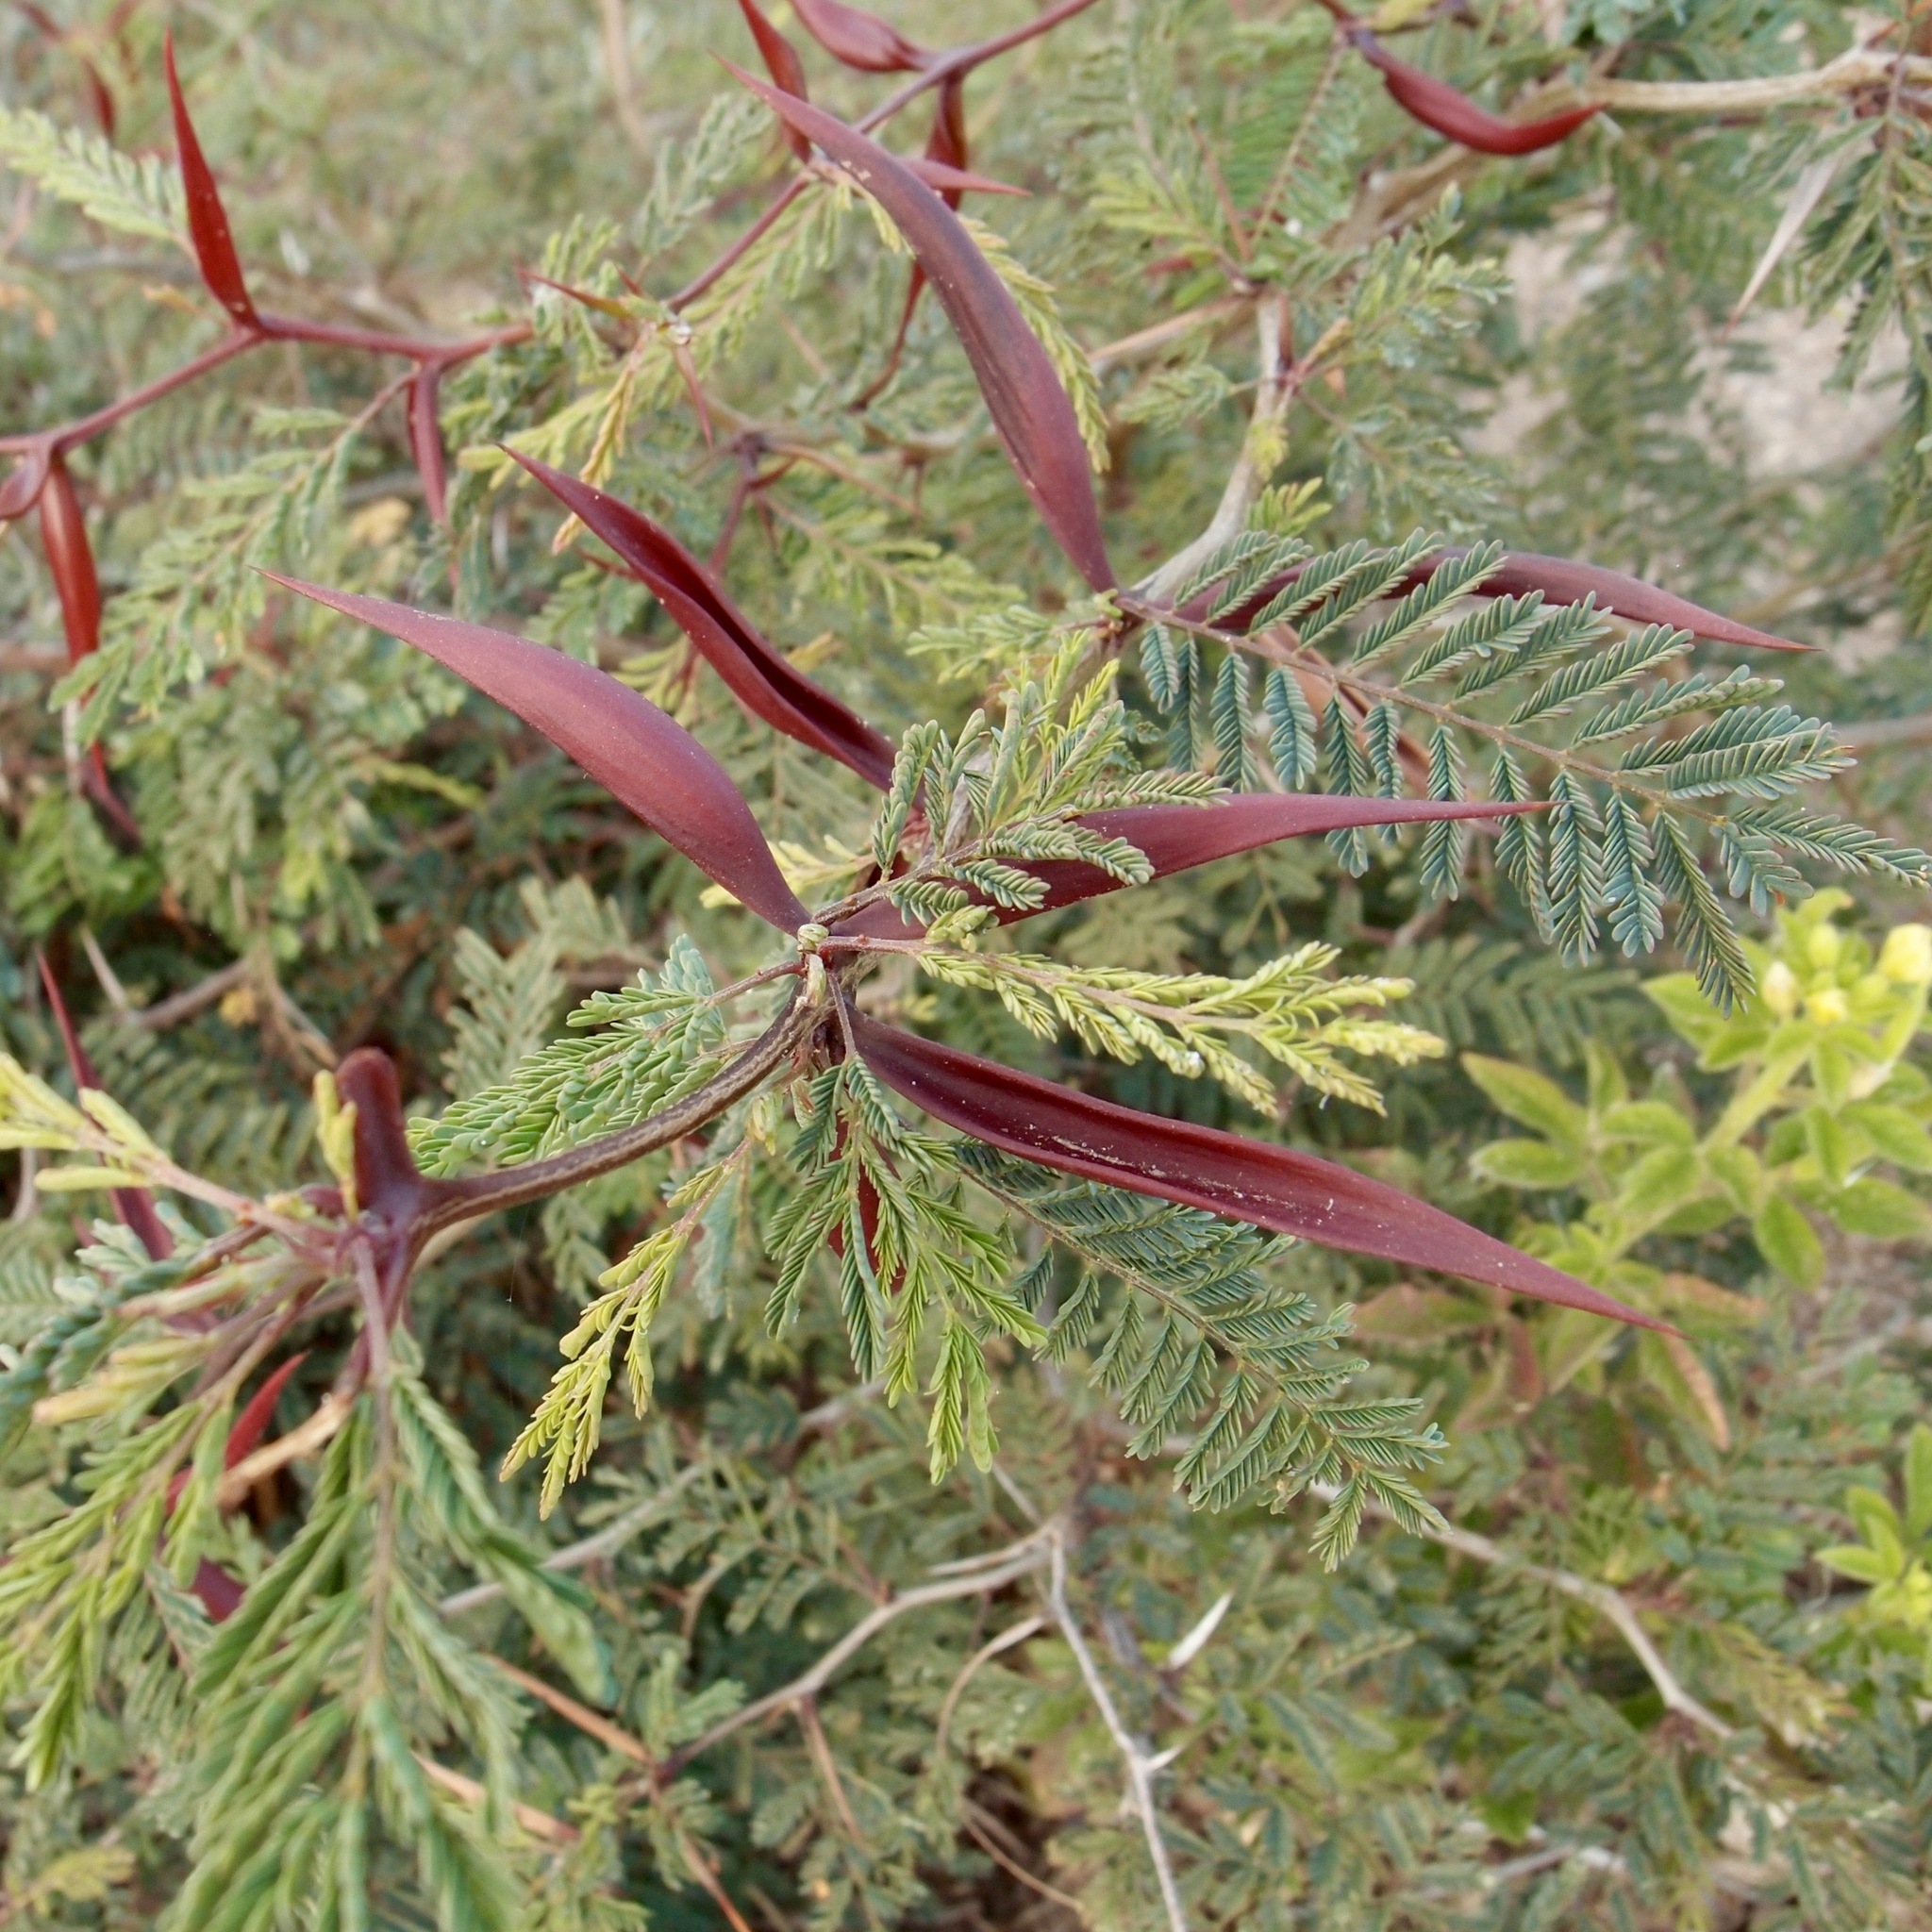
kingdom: Plantae
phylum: Tracheophyta
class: Magnoliopsida
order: Fabales
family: Fabaceae
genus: Vachellia
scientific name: Vachellia campechiana
